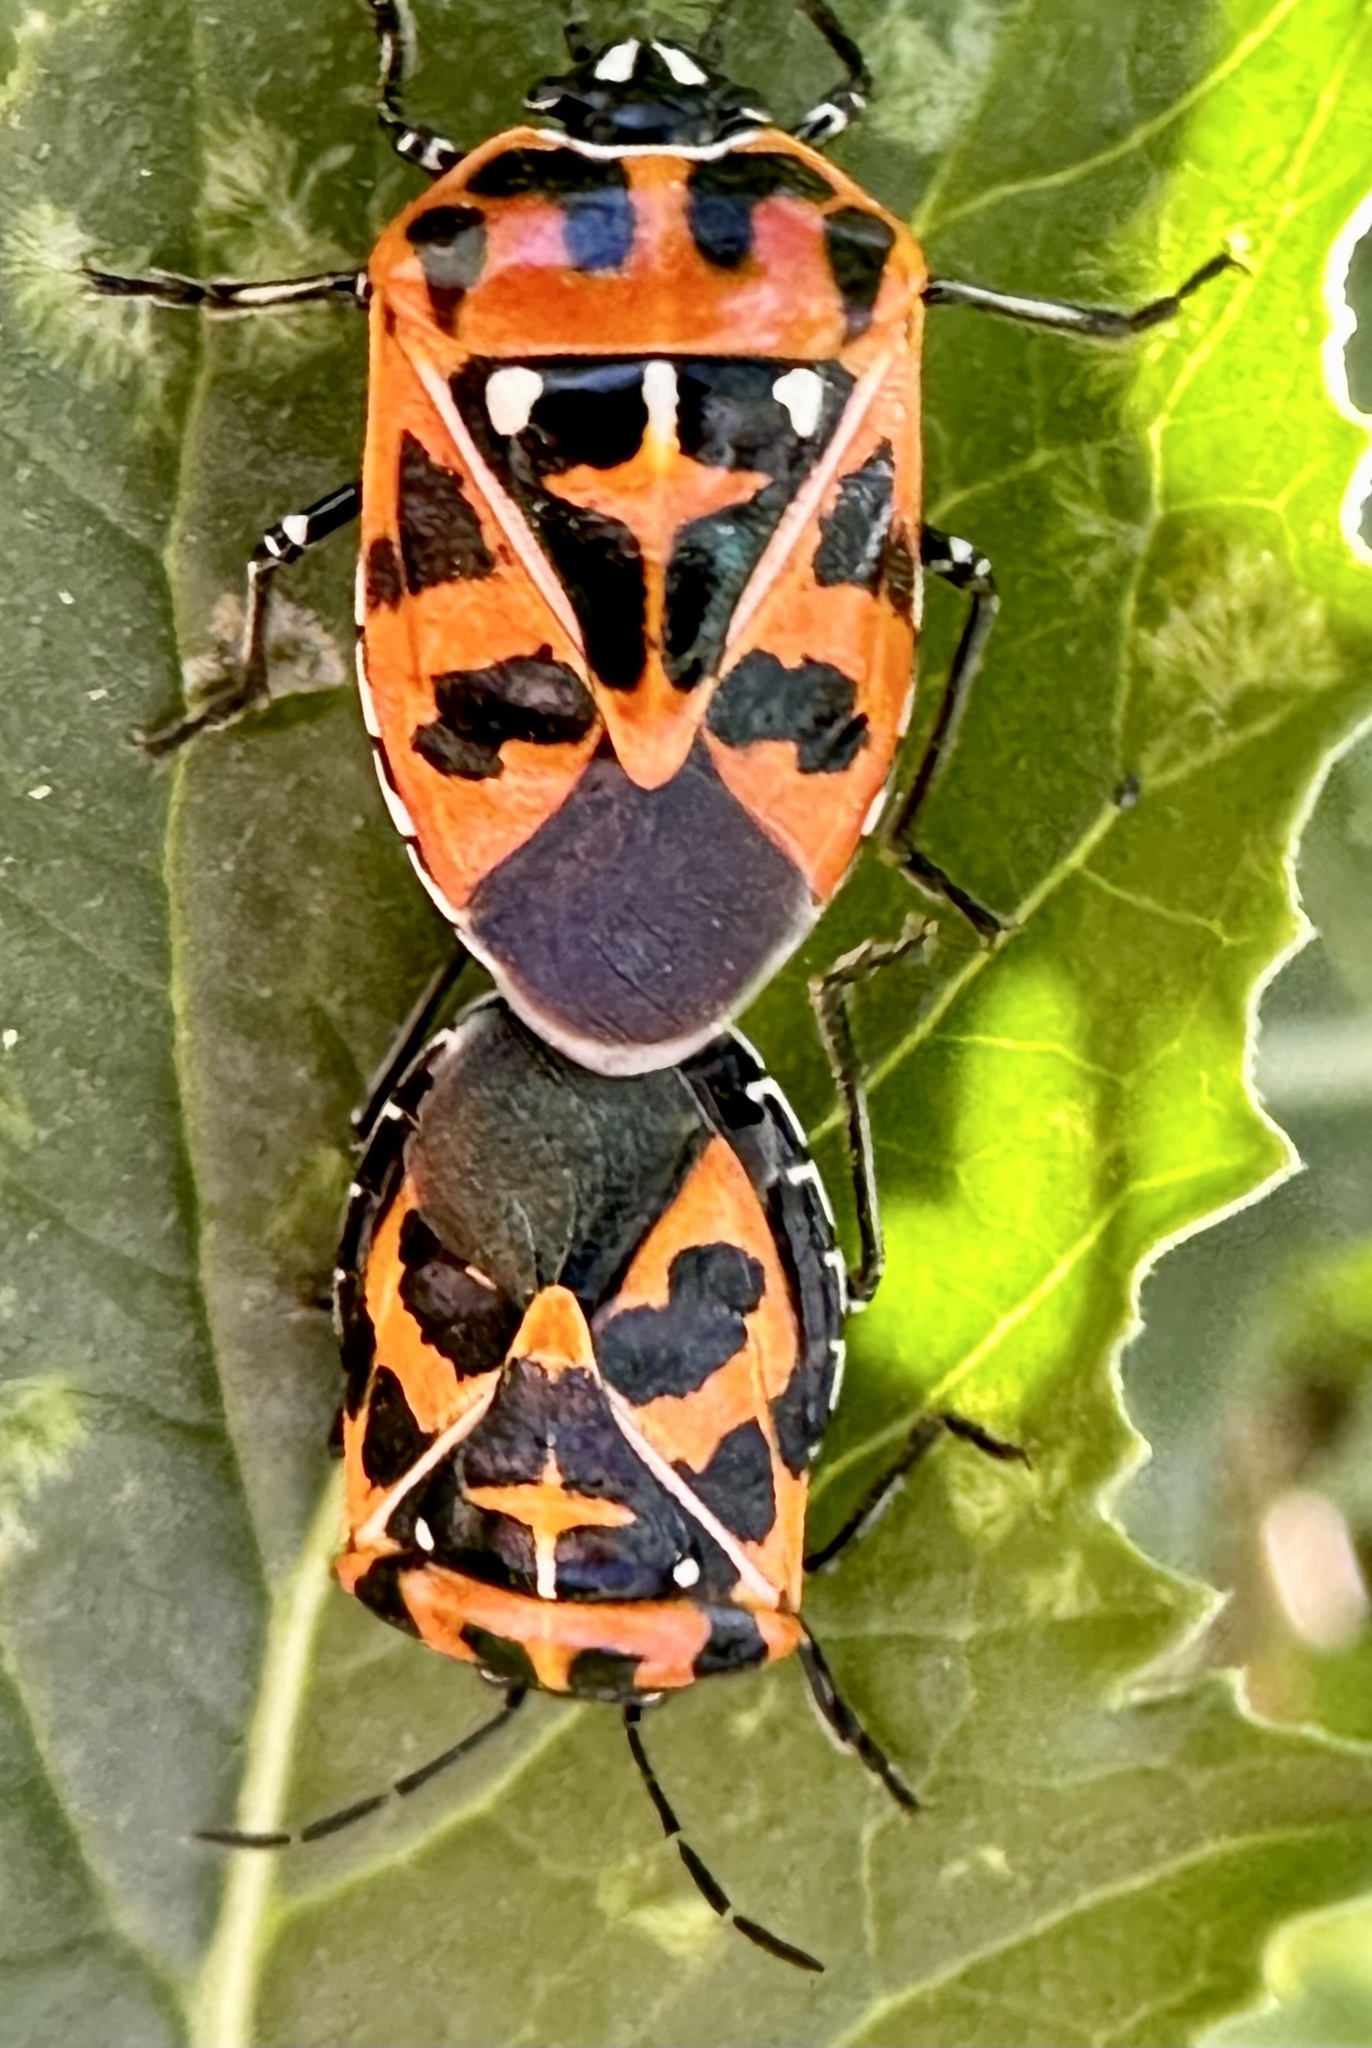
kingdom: Animalia
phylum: Arthropoda
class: Insecta
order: Hemiptera
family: Pentatomidae
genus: Murgantia
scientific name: Murgantia histrionica
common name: Harlequin bug
